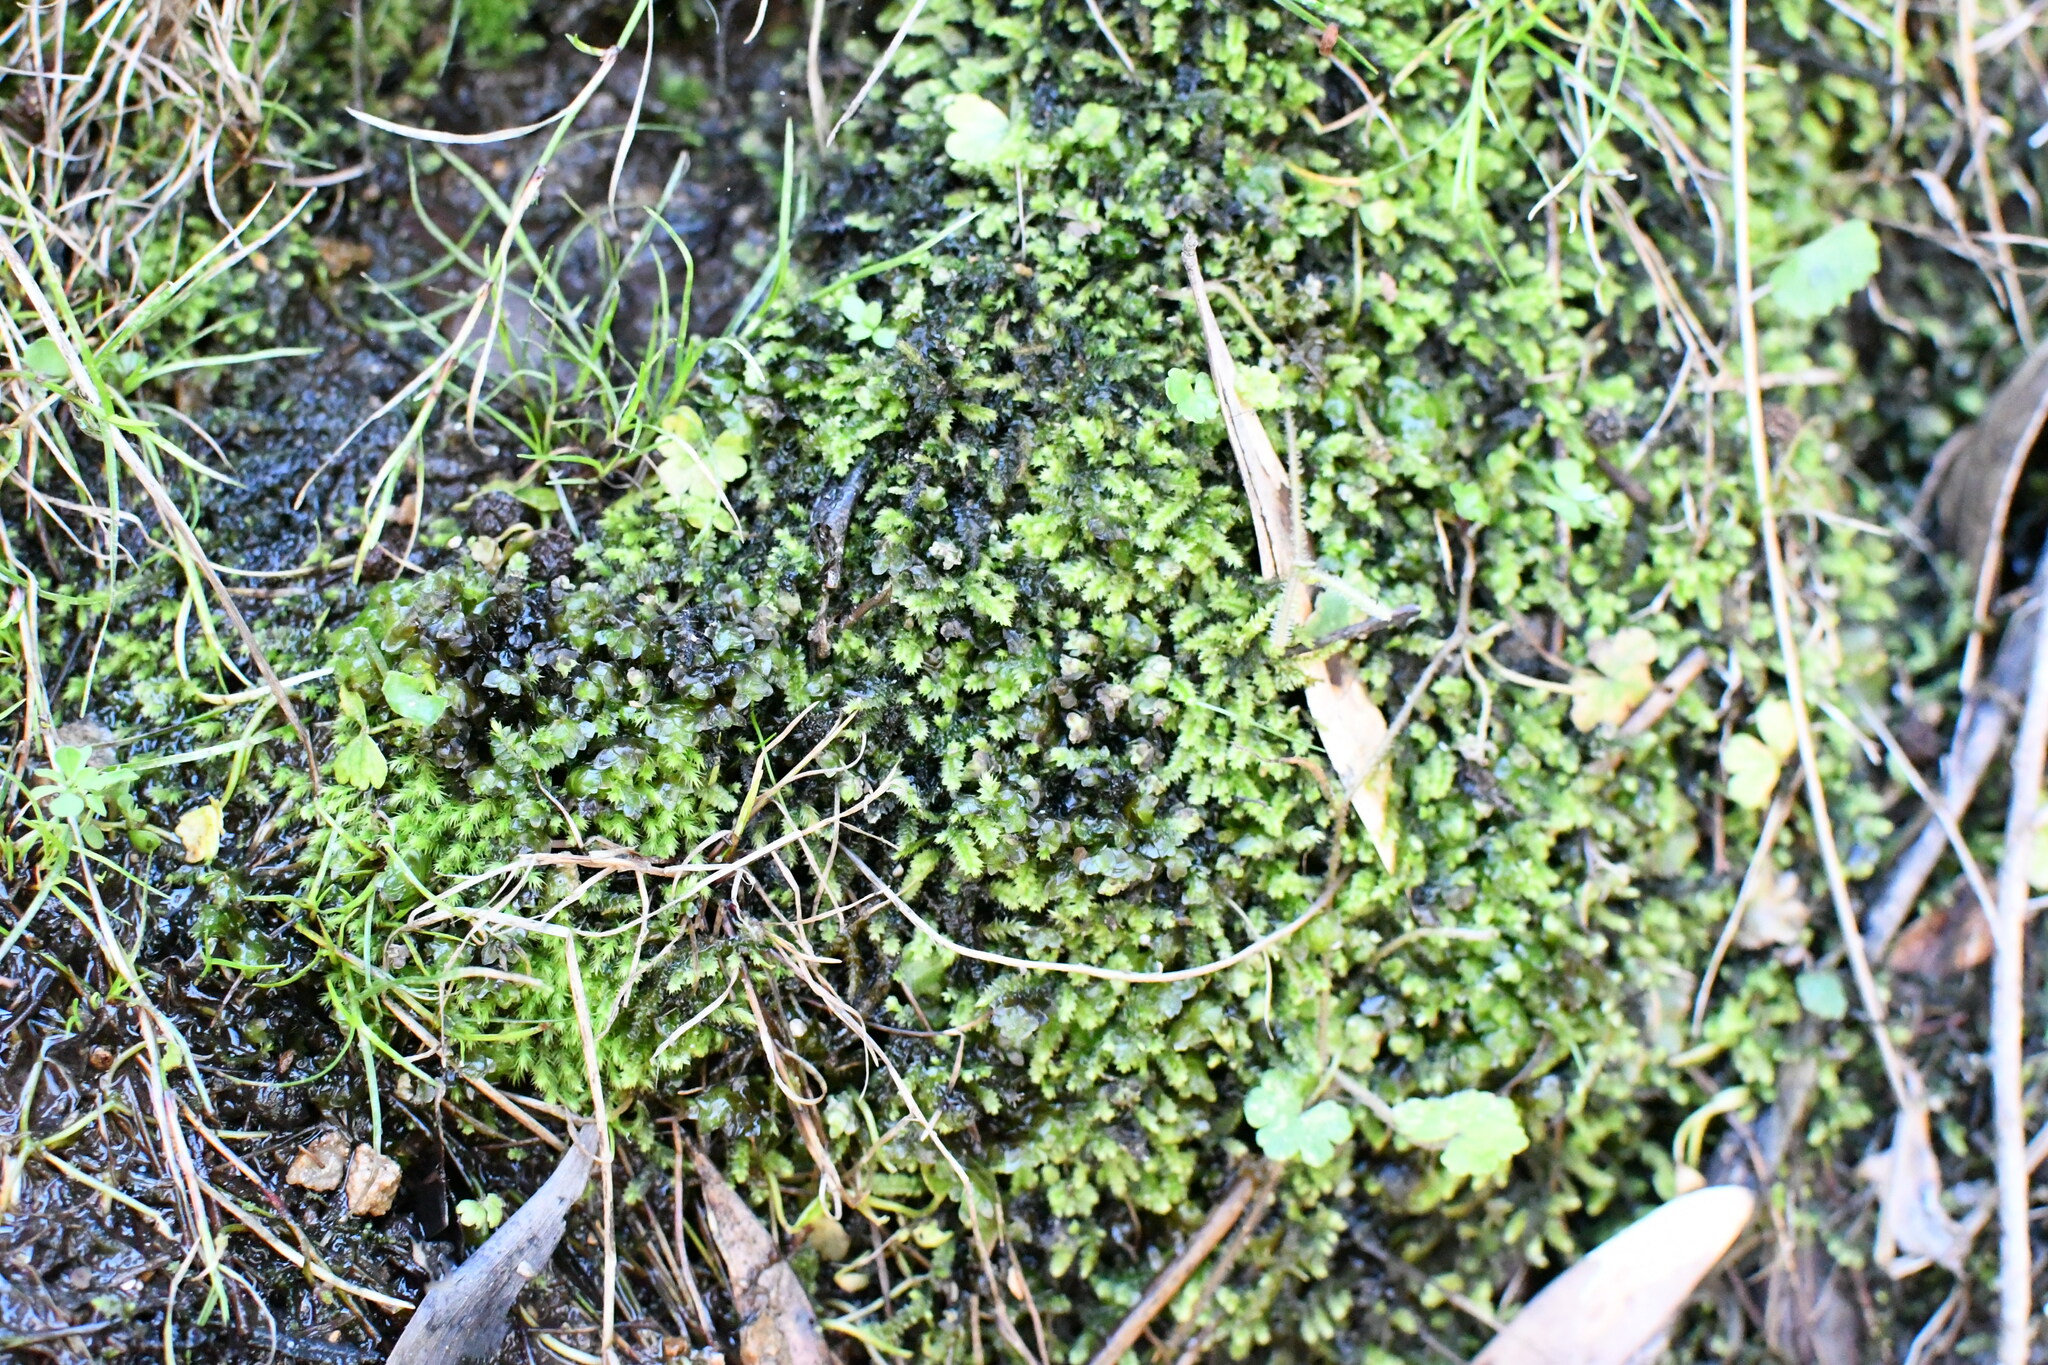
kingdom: Plantae
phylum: Bryophyta
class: Bryopsida
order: Hypnodendrales
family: Racopilaceae
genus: Racopilum
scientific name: Racopilum cuspidigerum
